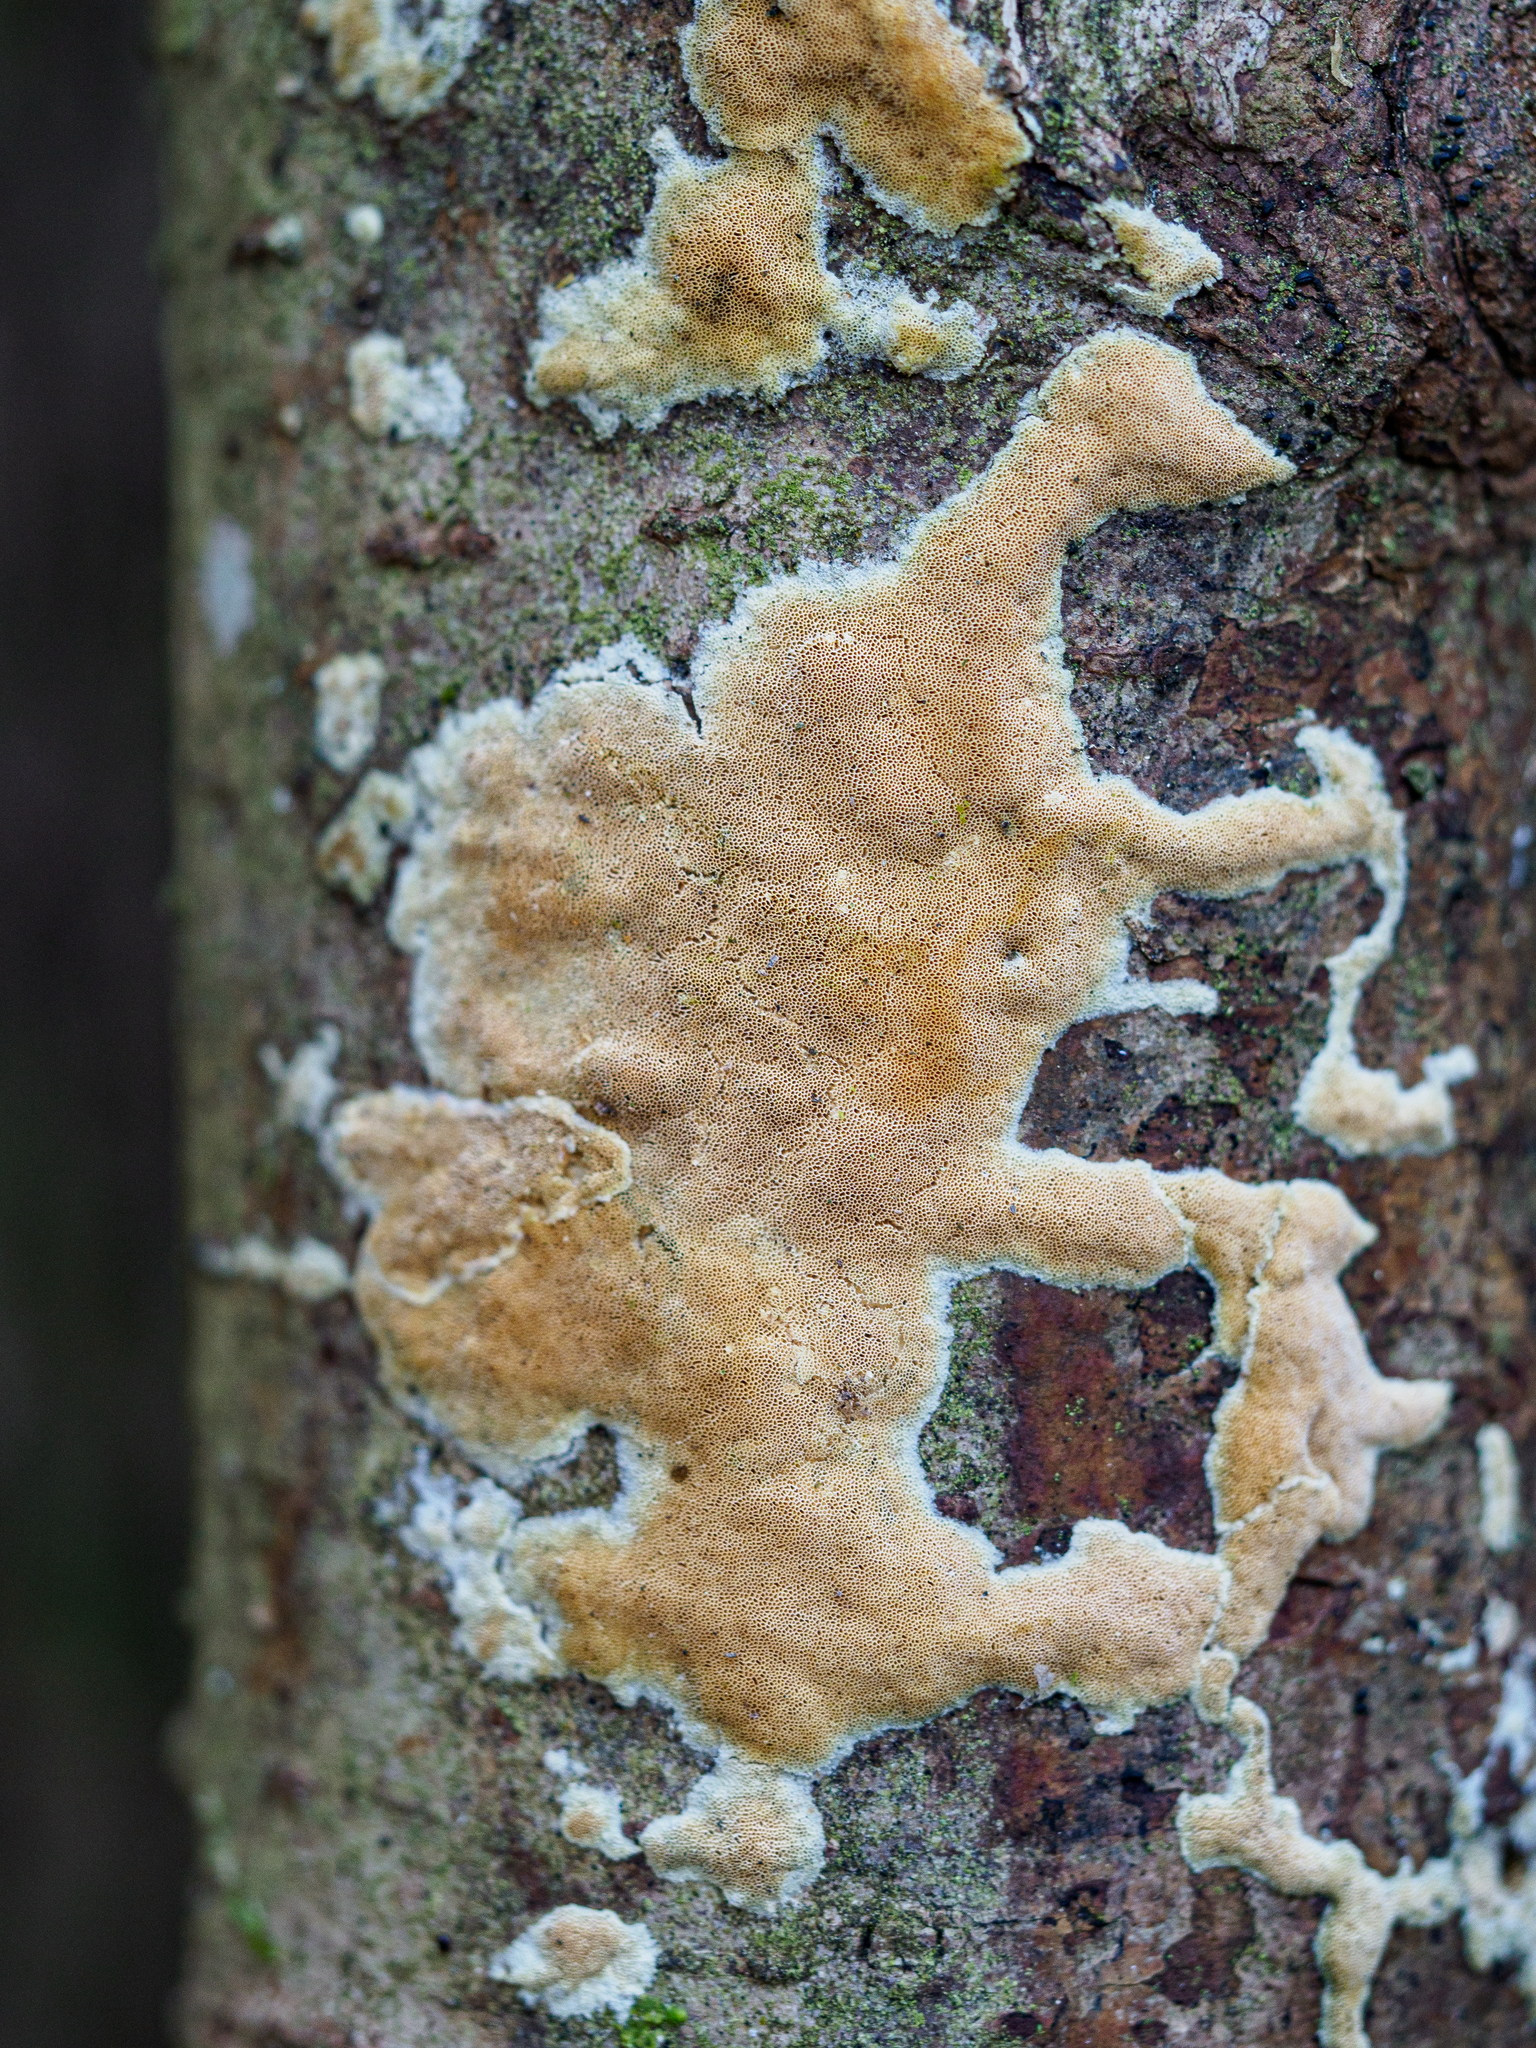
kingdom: Fungi
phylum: Basidiomycota
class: Agaricomycetes
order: Hymenochaetales
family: Schizoporaceae
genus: Xylodon
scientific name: Xylodon flaviporus
